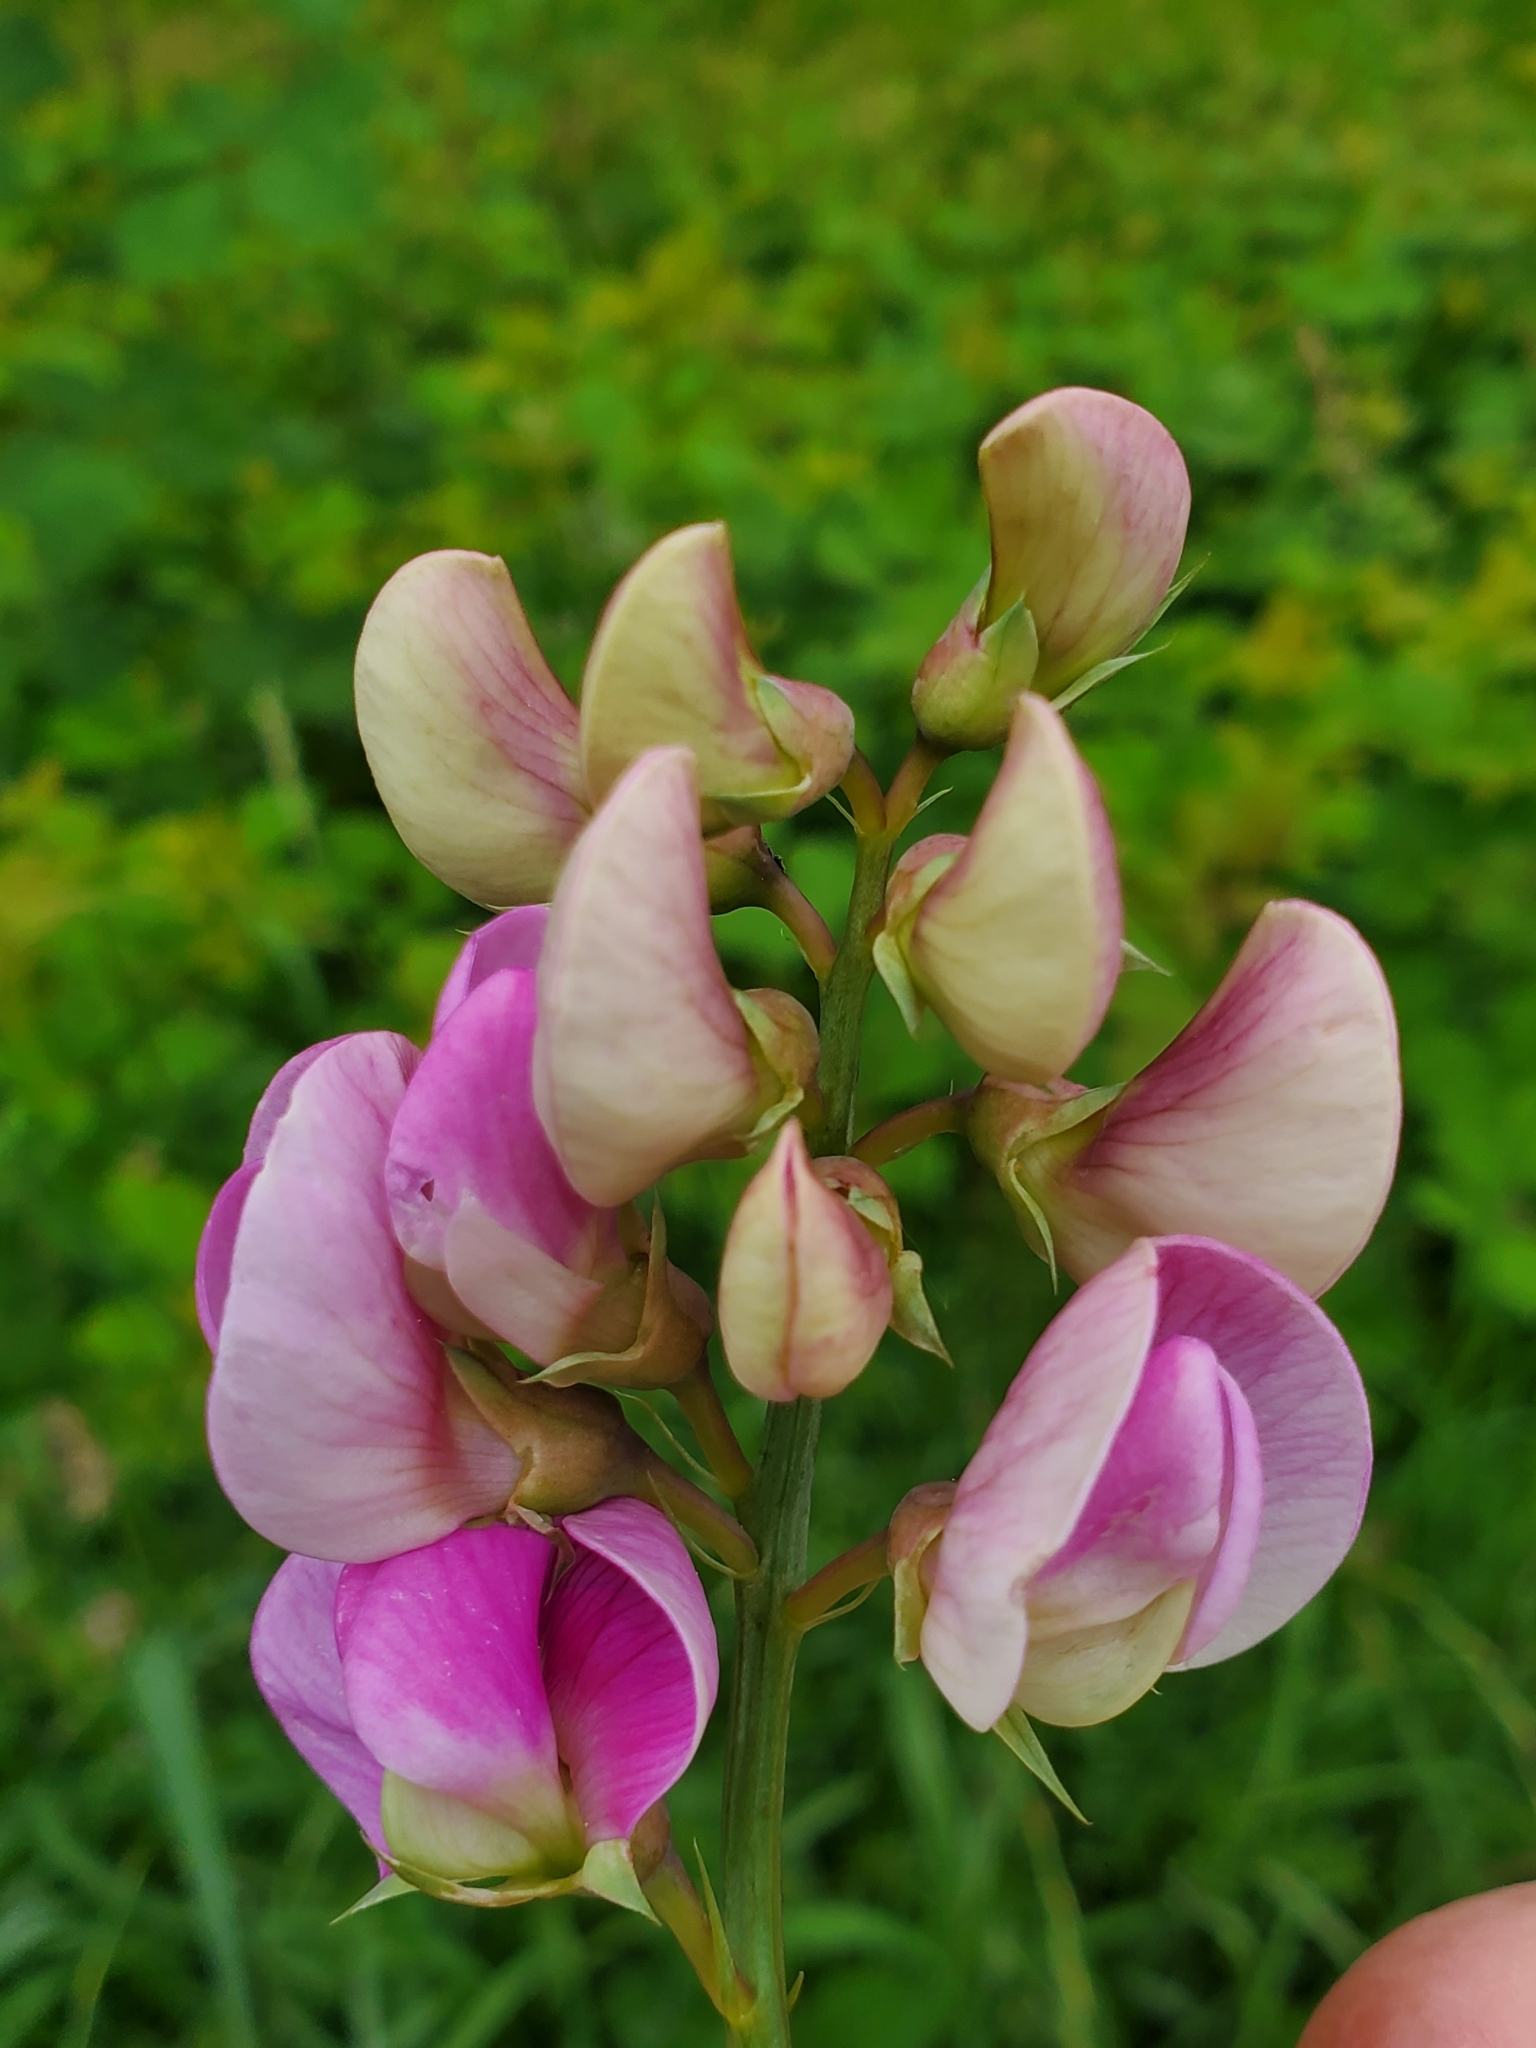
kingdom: Plantae
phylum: Tracheophyta
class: Magnoliopsida
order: Fabales
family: Fabaceae
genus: Lathyrus
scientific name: Lathyrus latifolius
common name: Perennial pea
